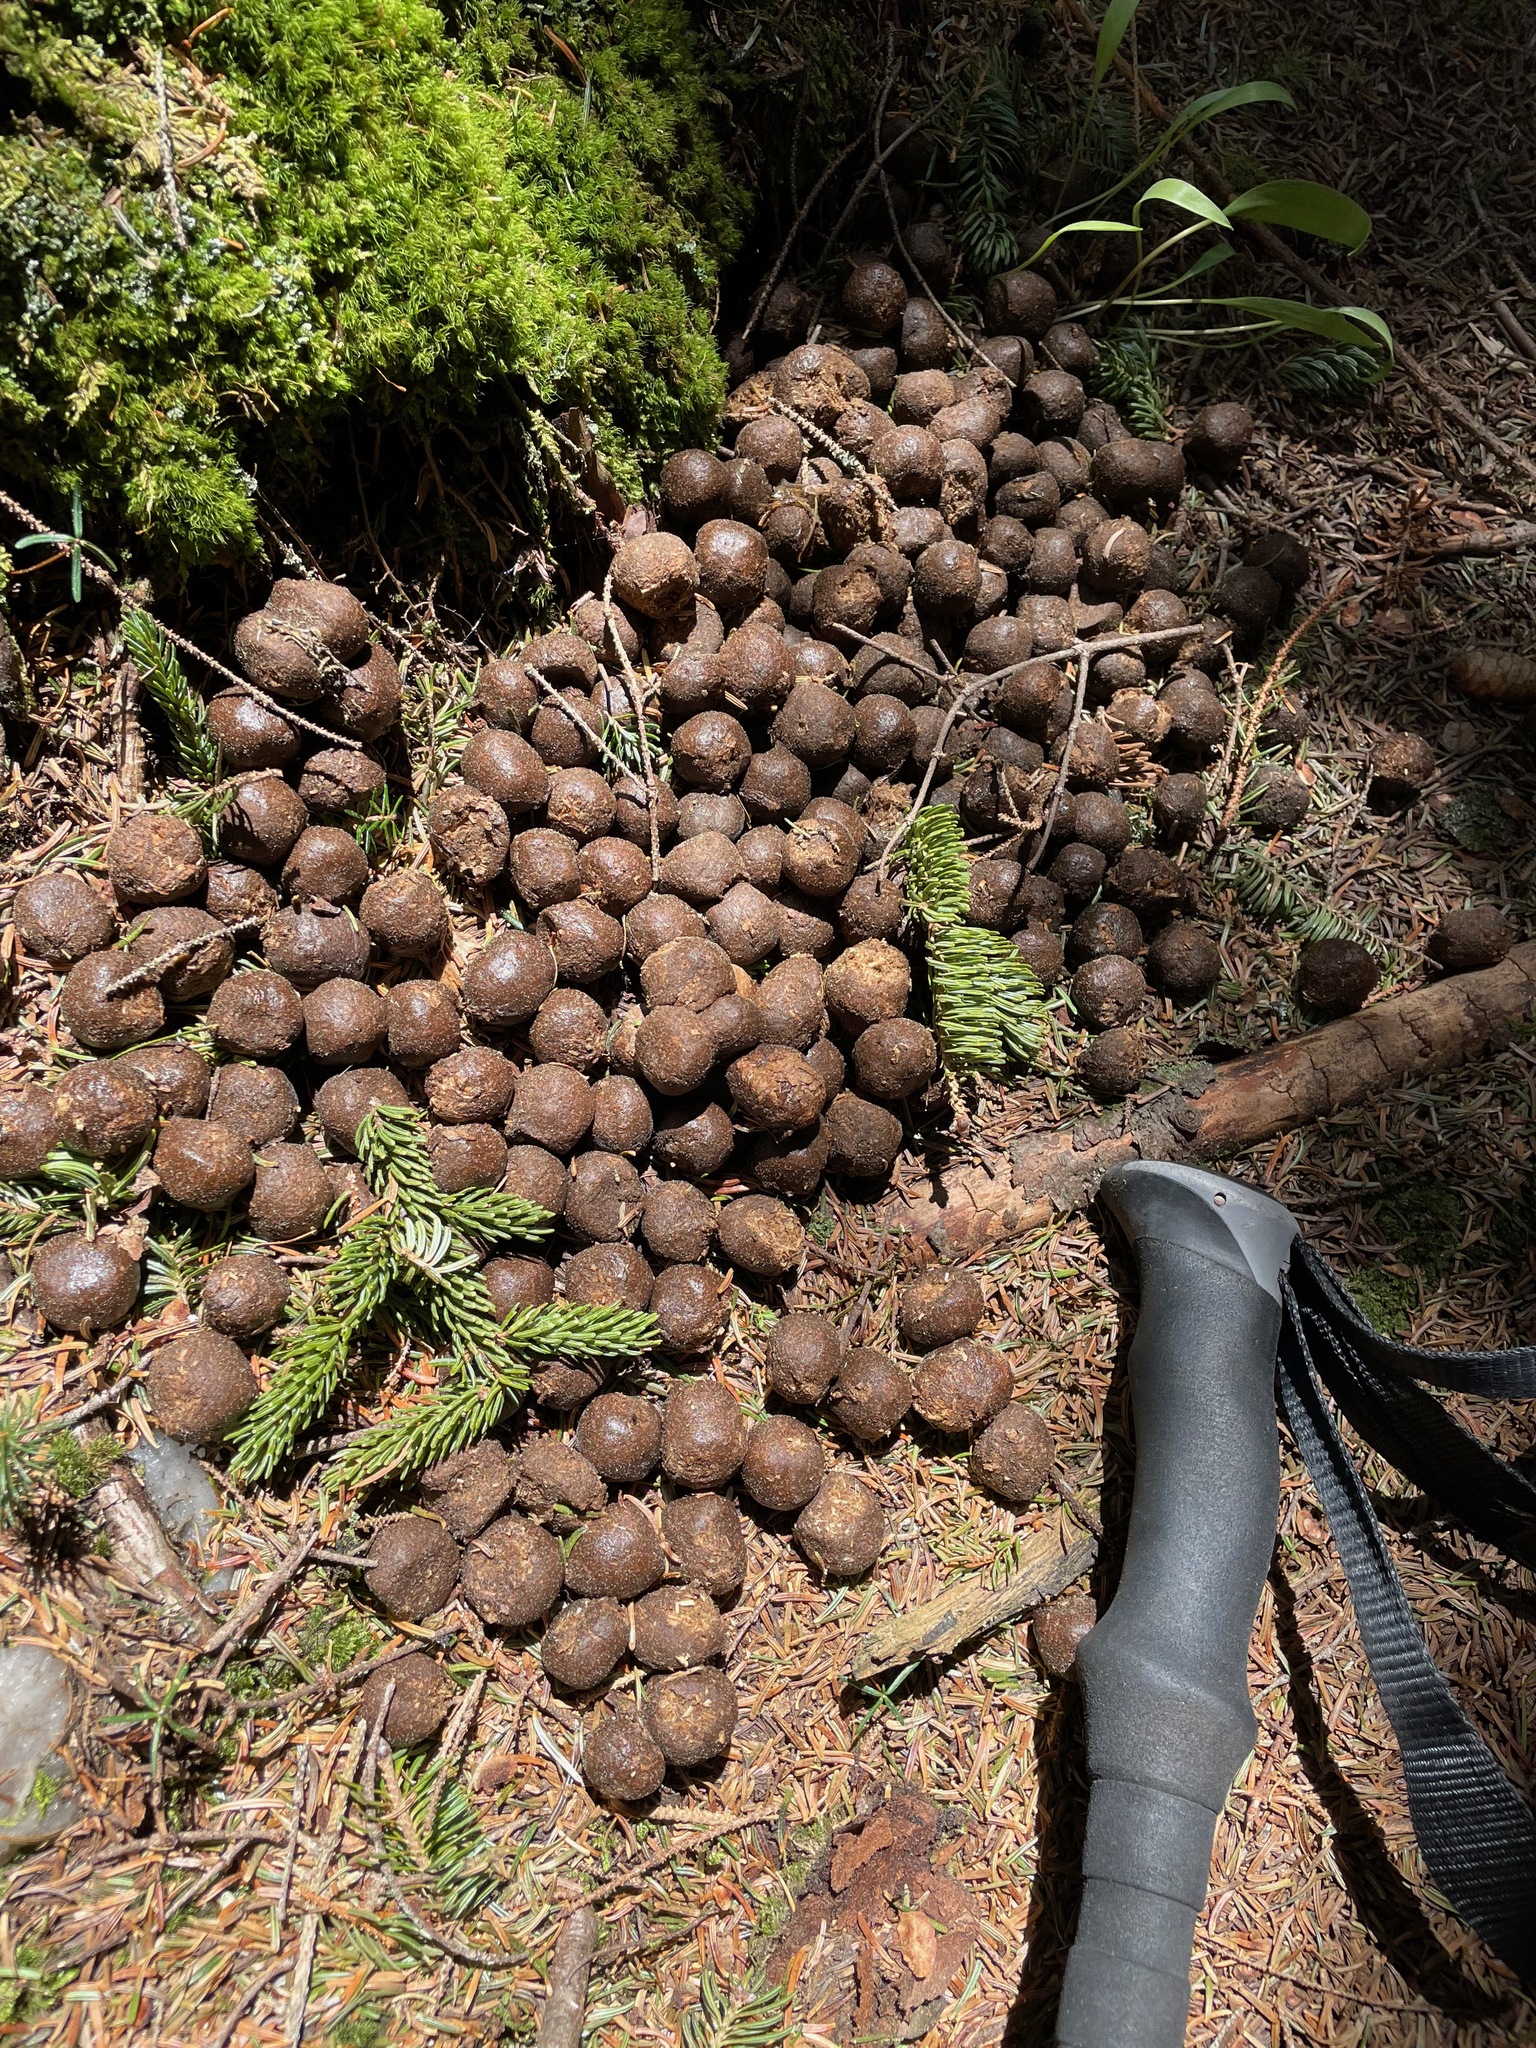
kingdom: Animalia
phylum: Chordata
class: Mammalia
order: Artiodactyla
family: Cervidae
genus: Alces
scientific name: Alces alces
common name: Moose
